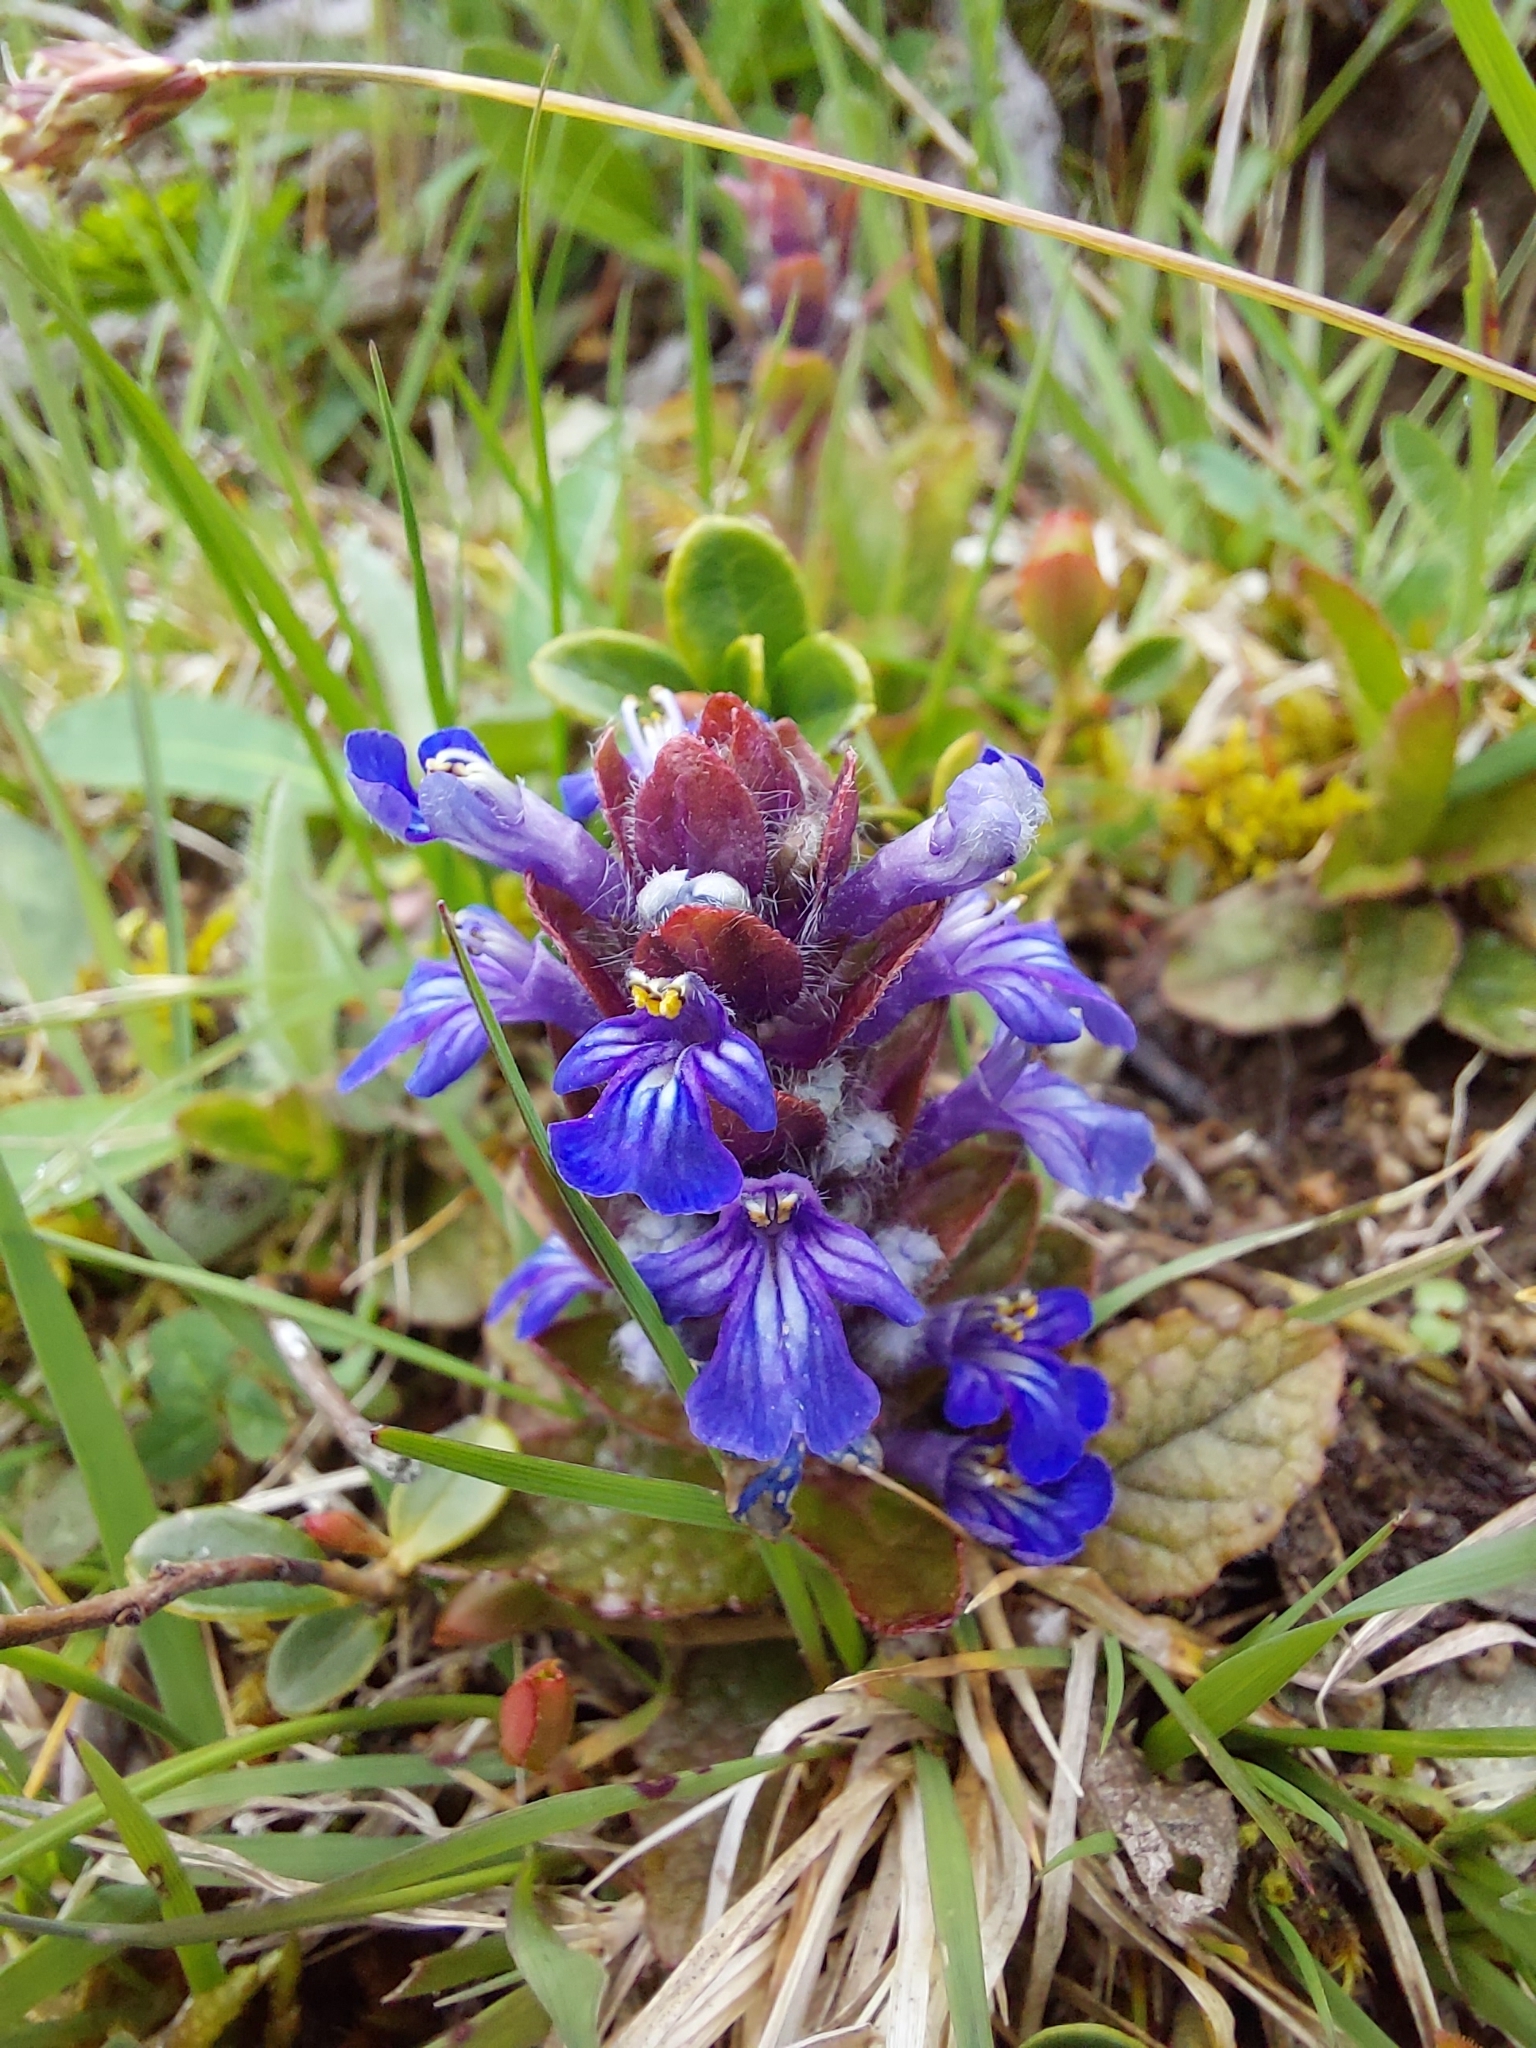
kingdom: Plantae
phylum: Tracheophyta
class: Magnoliopsida
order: Lamiales
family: Lamiaceae
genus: Ajuga
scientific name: Ajuga reptans
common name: Bugle
